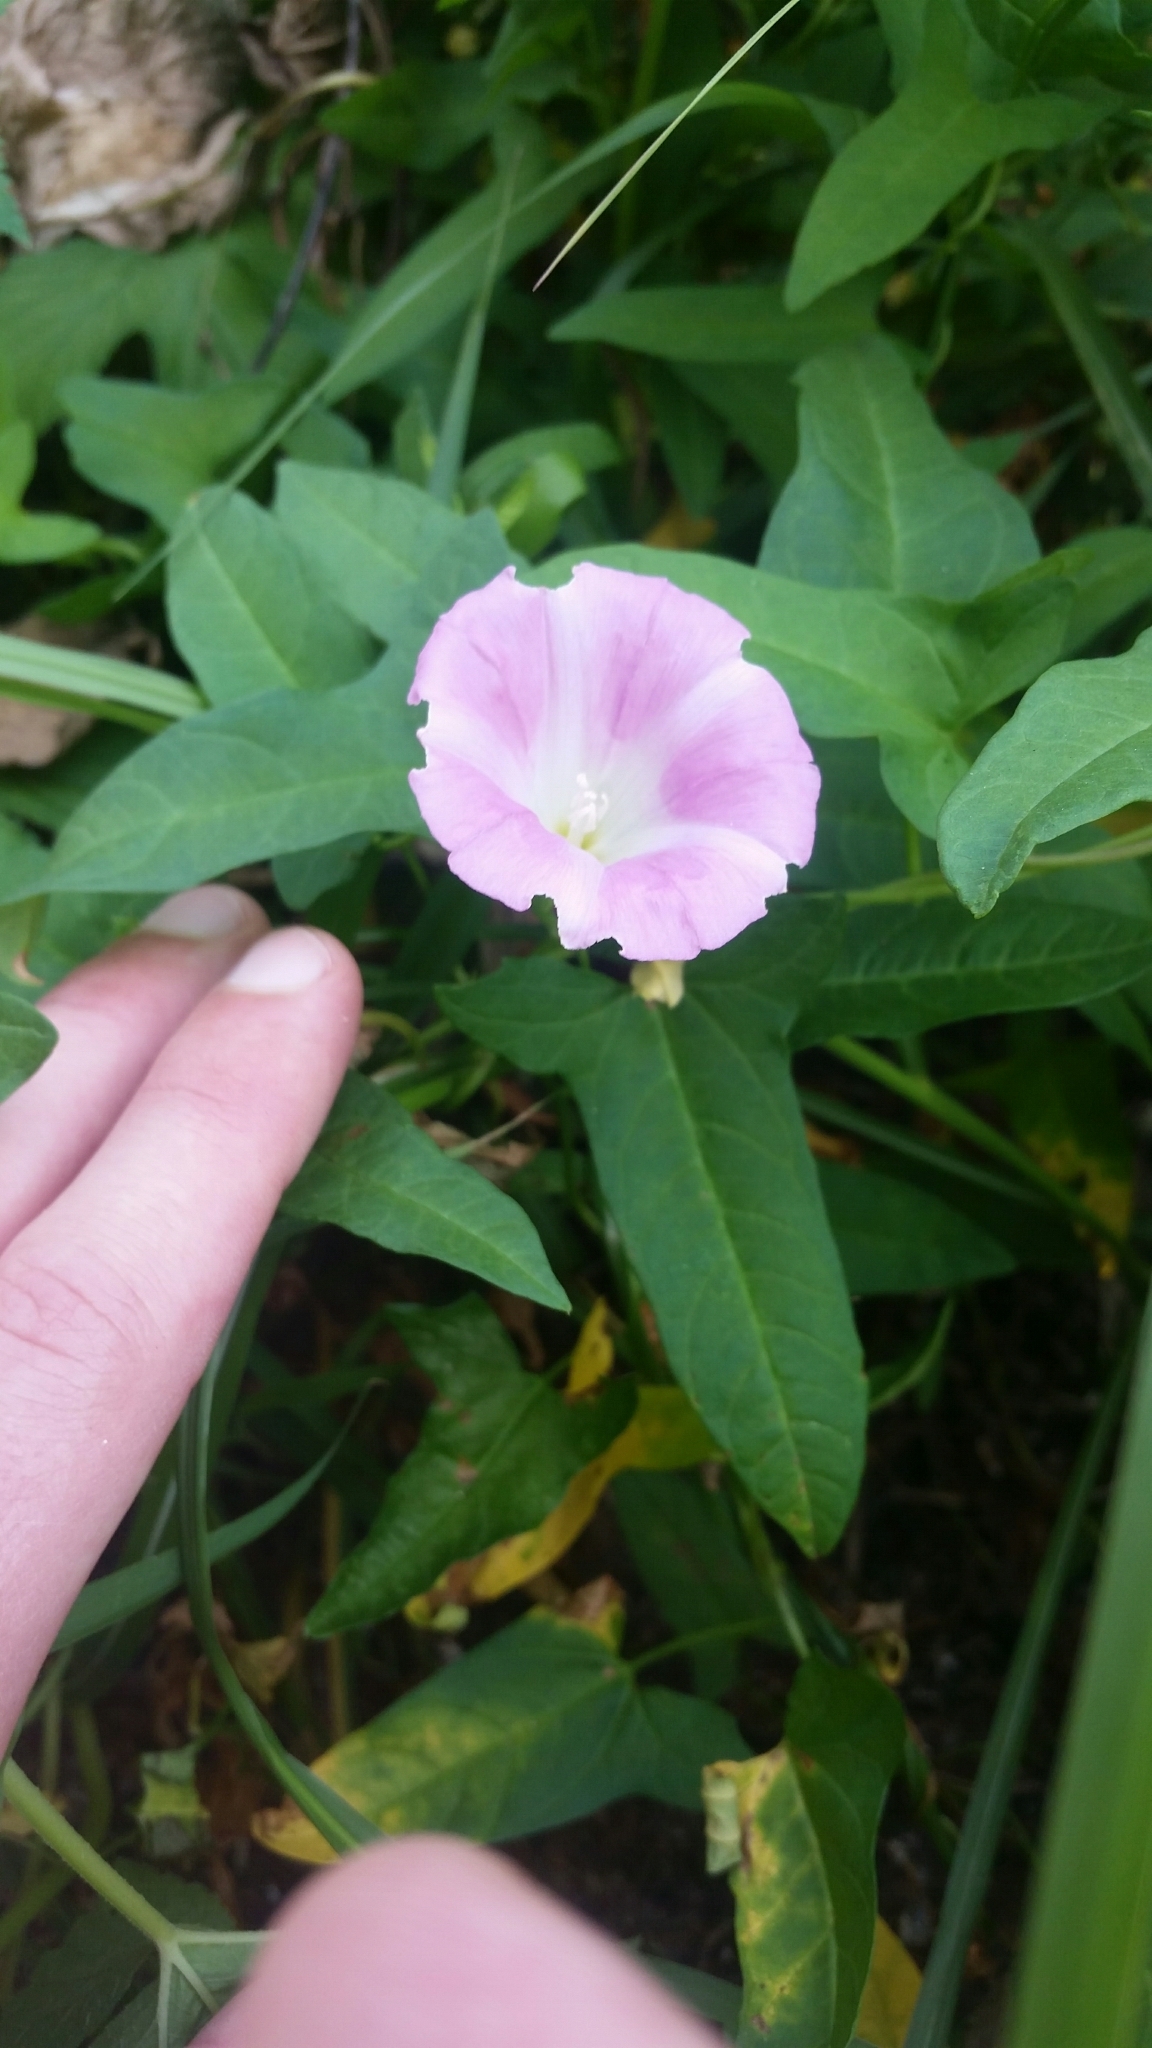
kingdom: Plantae
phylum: Tracheophyta
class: Magnoliopsida
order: Solanales
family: Convolvulaceae
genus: Calystegia
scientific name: Calystegia hederacea
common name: Japanese false bindweed
